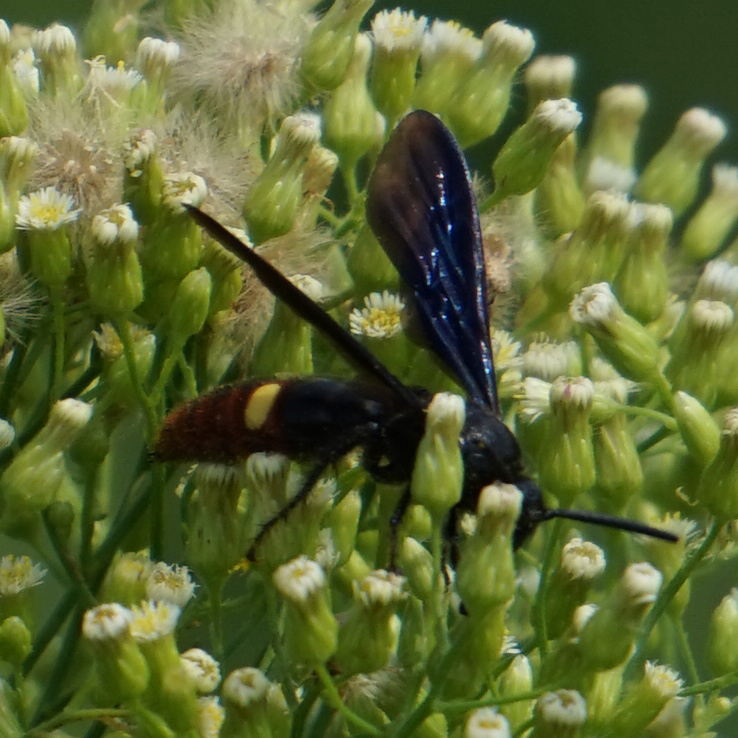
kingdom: Animalia
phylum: Arthropoda
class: Insecta
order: Hymenoptera
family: Scoliidae
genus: Scolia
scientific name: Scolia dubia
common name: Blue-winged scoliid wasp
